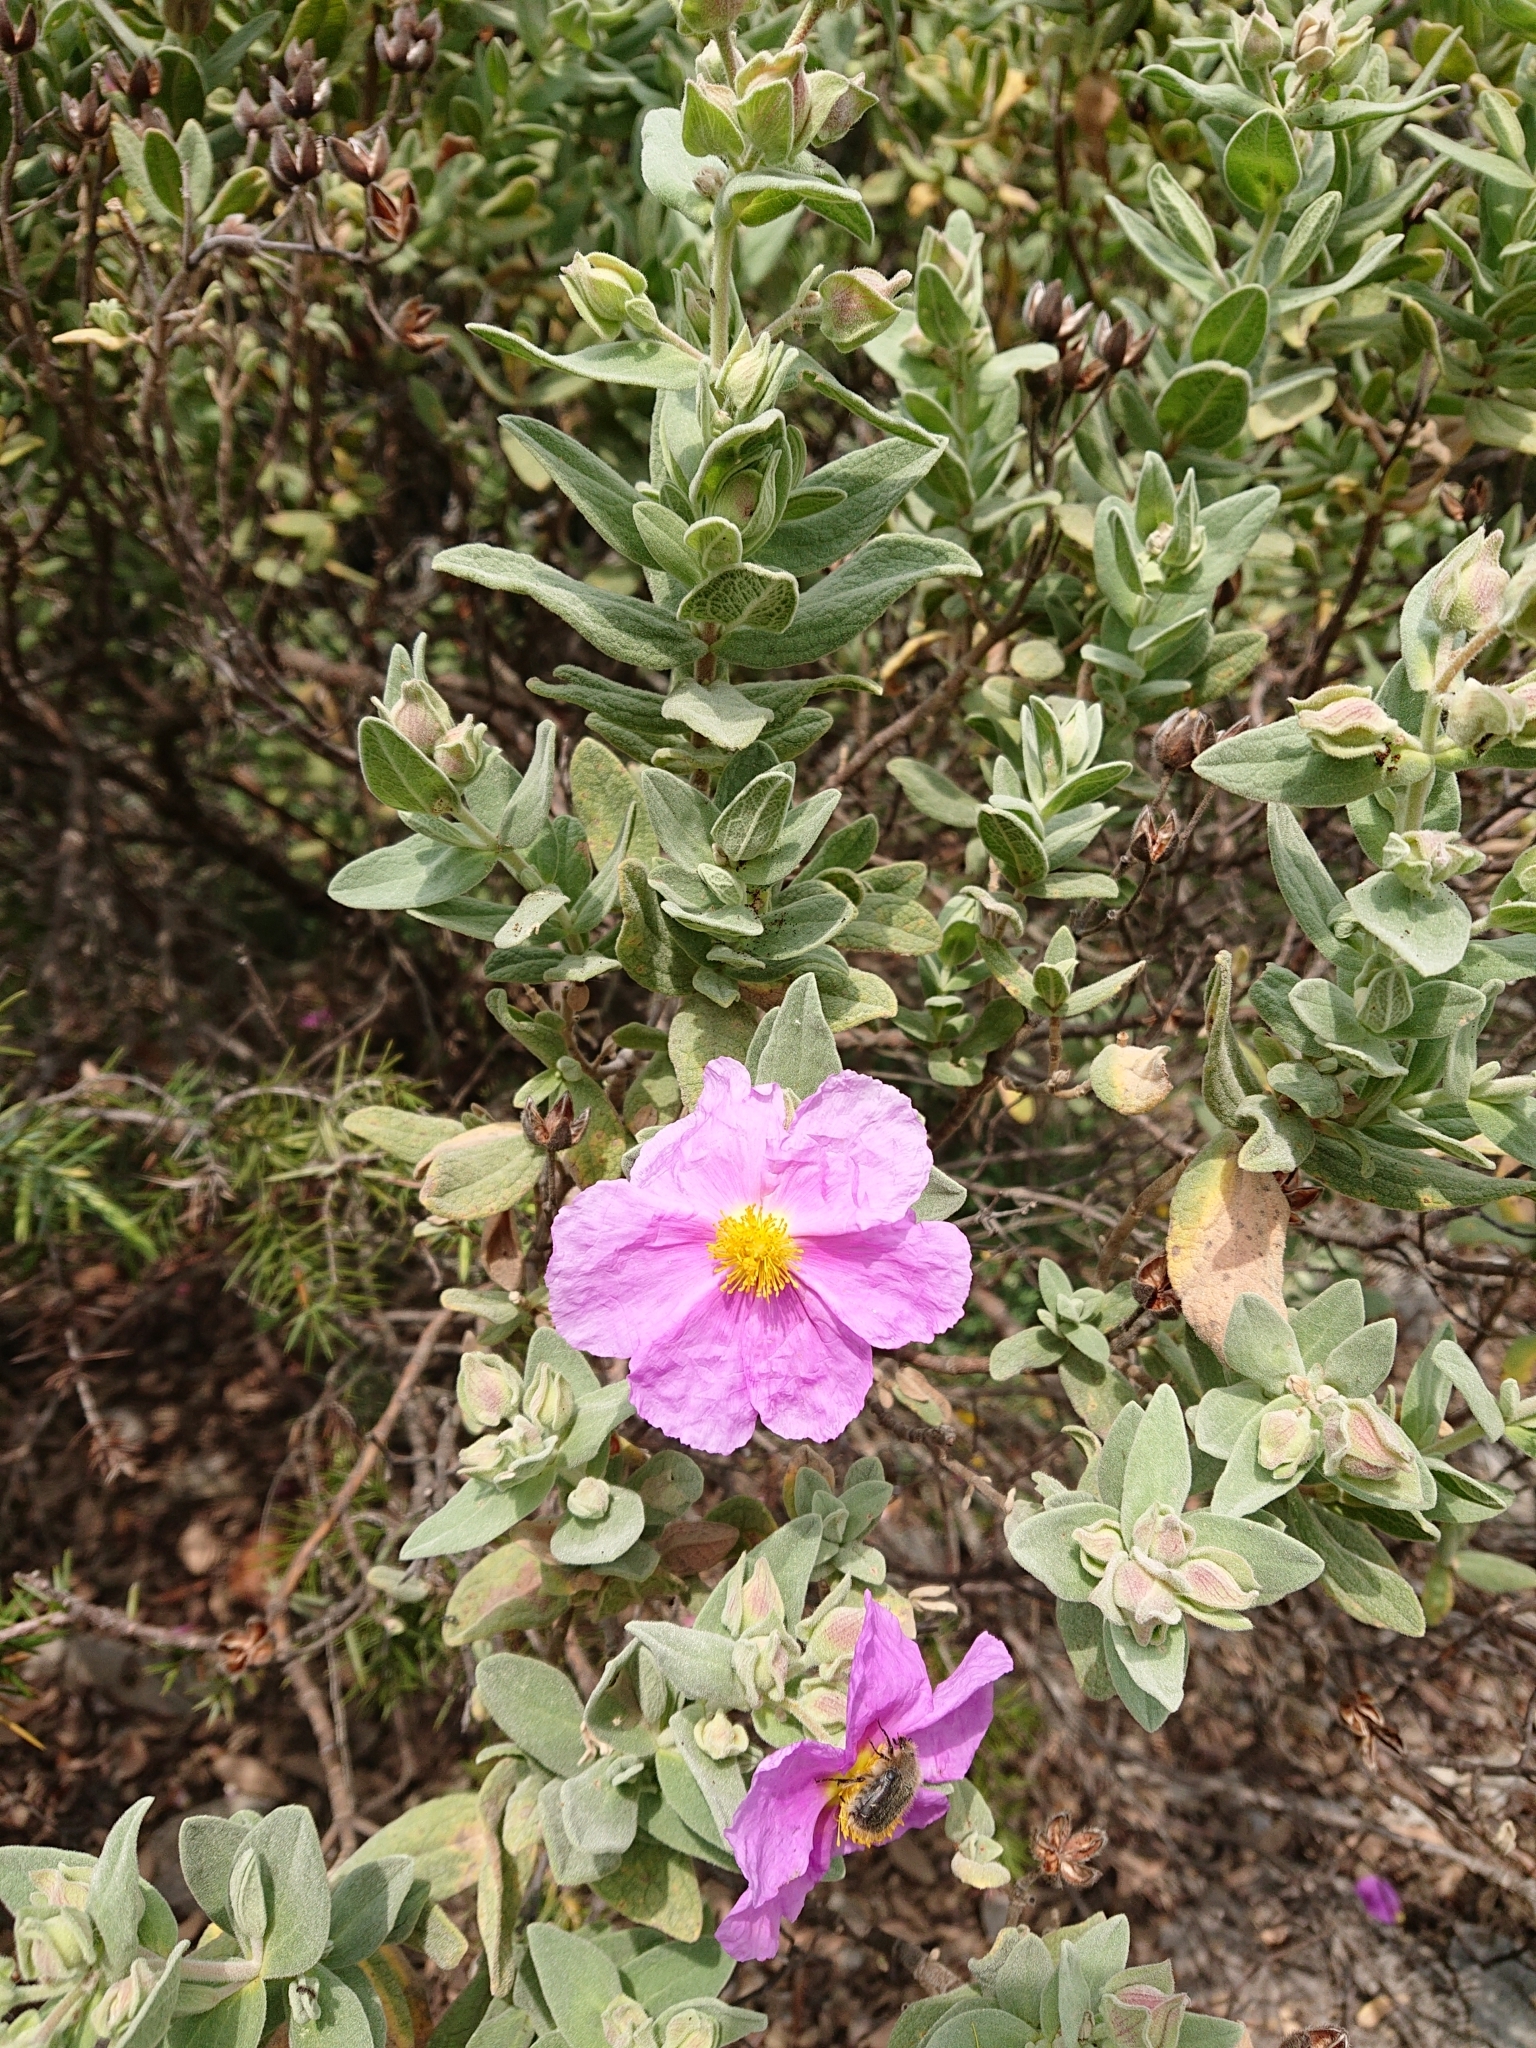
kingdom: Plantae
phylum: Tracheophyta
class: Magnoliopsida
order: Malvales
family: Cistaceae
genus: Cistus
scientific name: Cistus albidus
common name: White-leaf rock-rose
